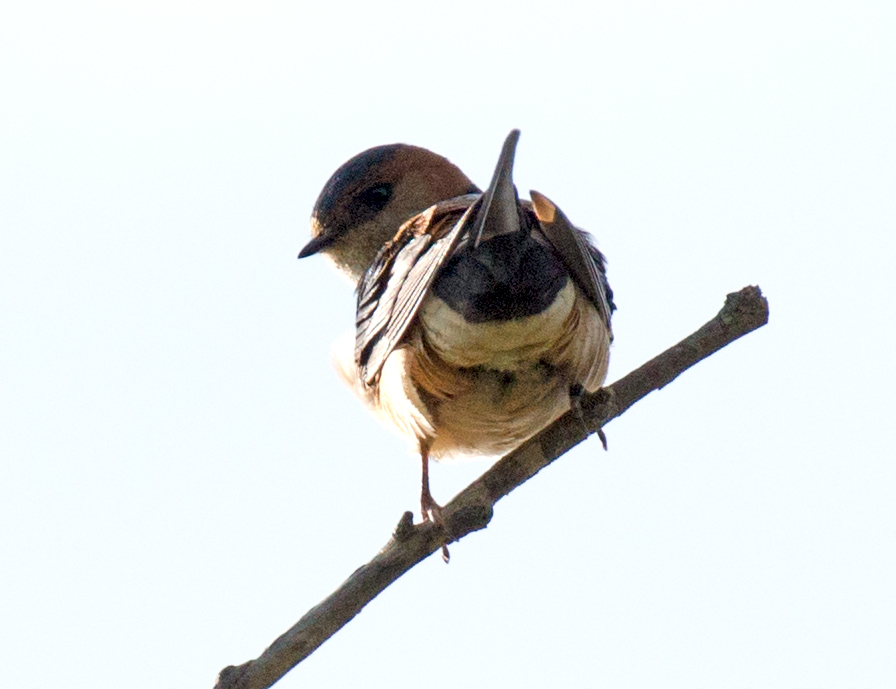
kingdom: Animalia
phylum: Chordata
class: Aves
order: Passeriformes
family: Hirundinidae
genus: Cecropis
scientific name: Cecropis daurica
